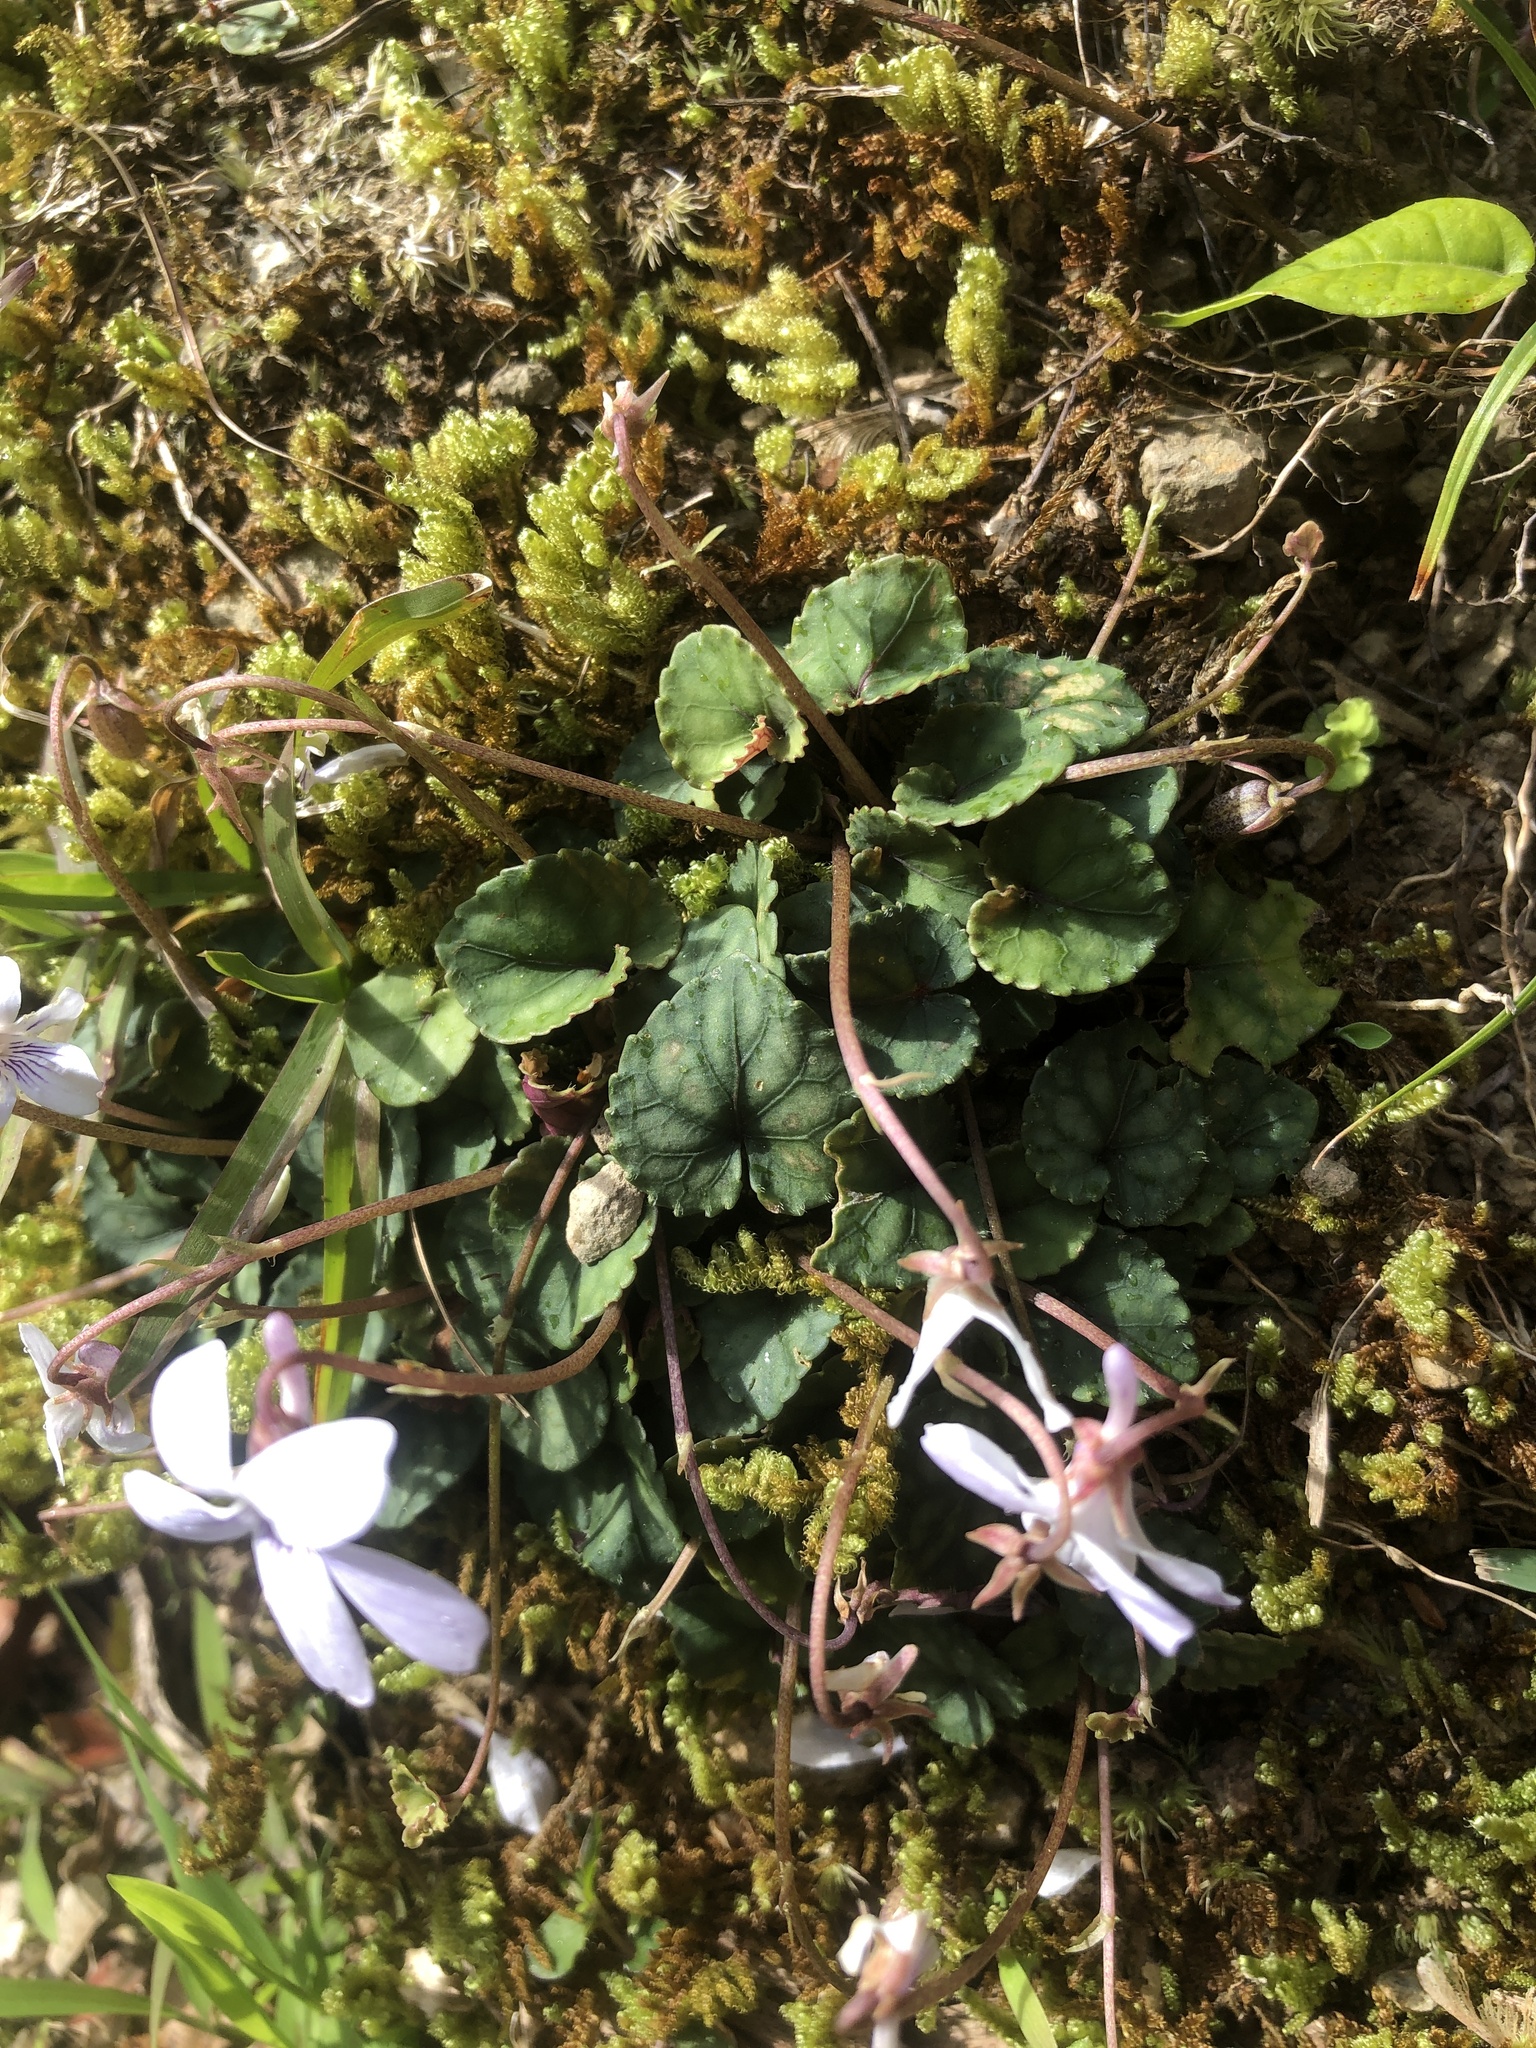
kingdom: Plantae
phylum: Tracheophyta
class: Magnoliopsida
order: Malpighiales
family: Violaceae
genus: Viola
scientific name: Viola formosana
